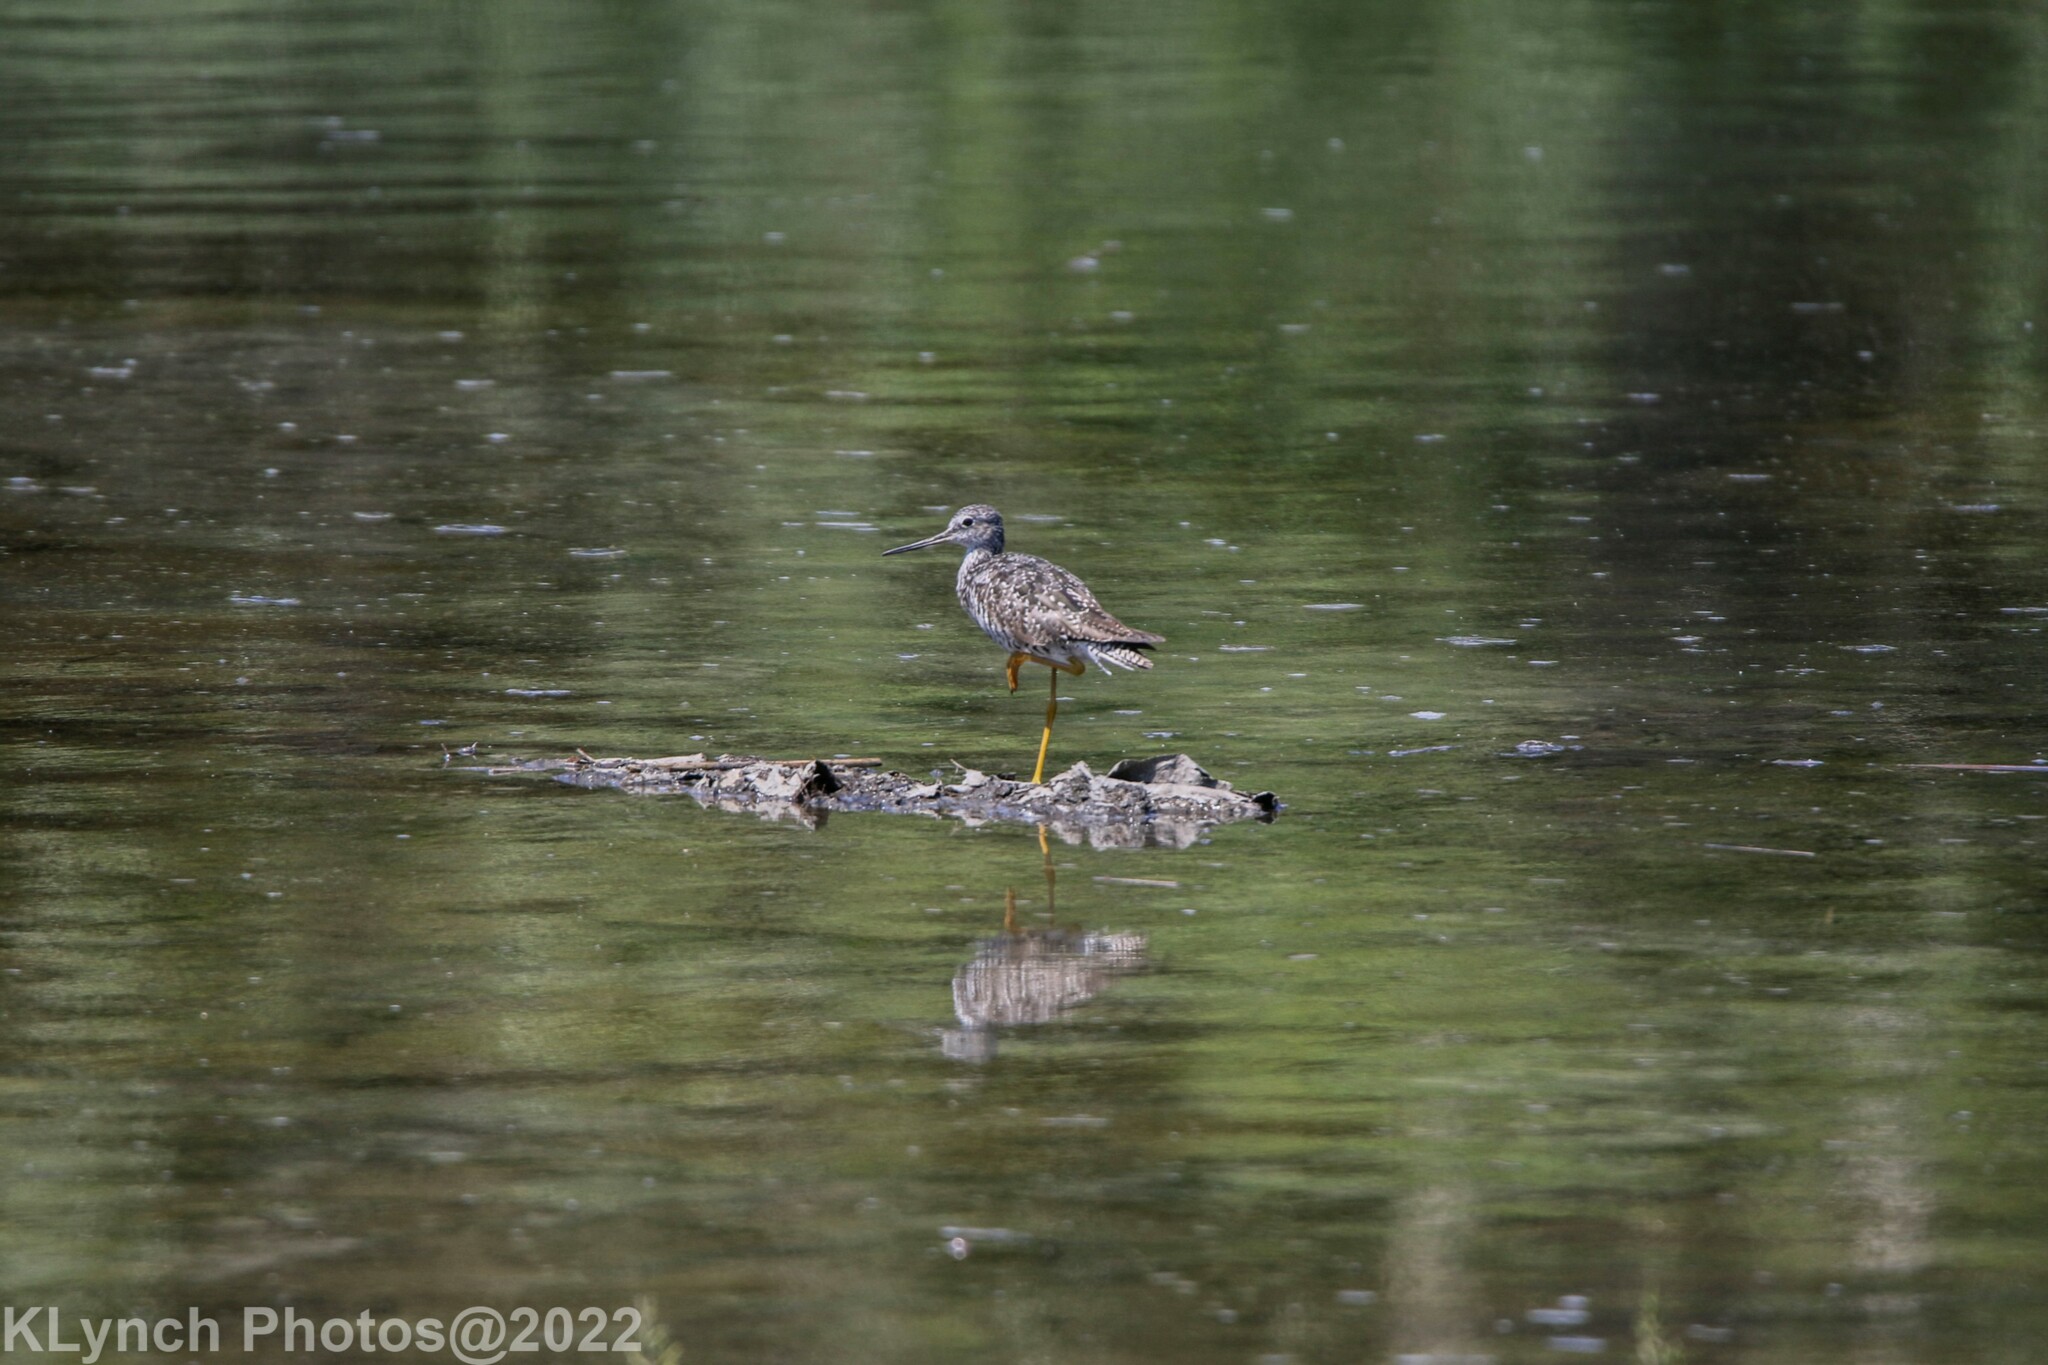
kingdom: Animalia
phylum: Chordata
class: Aves
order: Charadriiformes
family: Scolopacidae
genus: Tringa
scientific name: Tringa melanoleuca
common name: Greater yellowlegs
